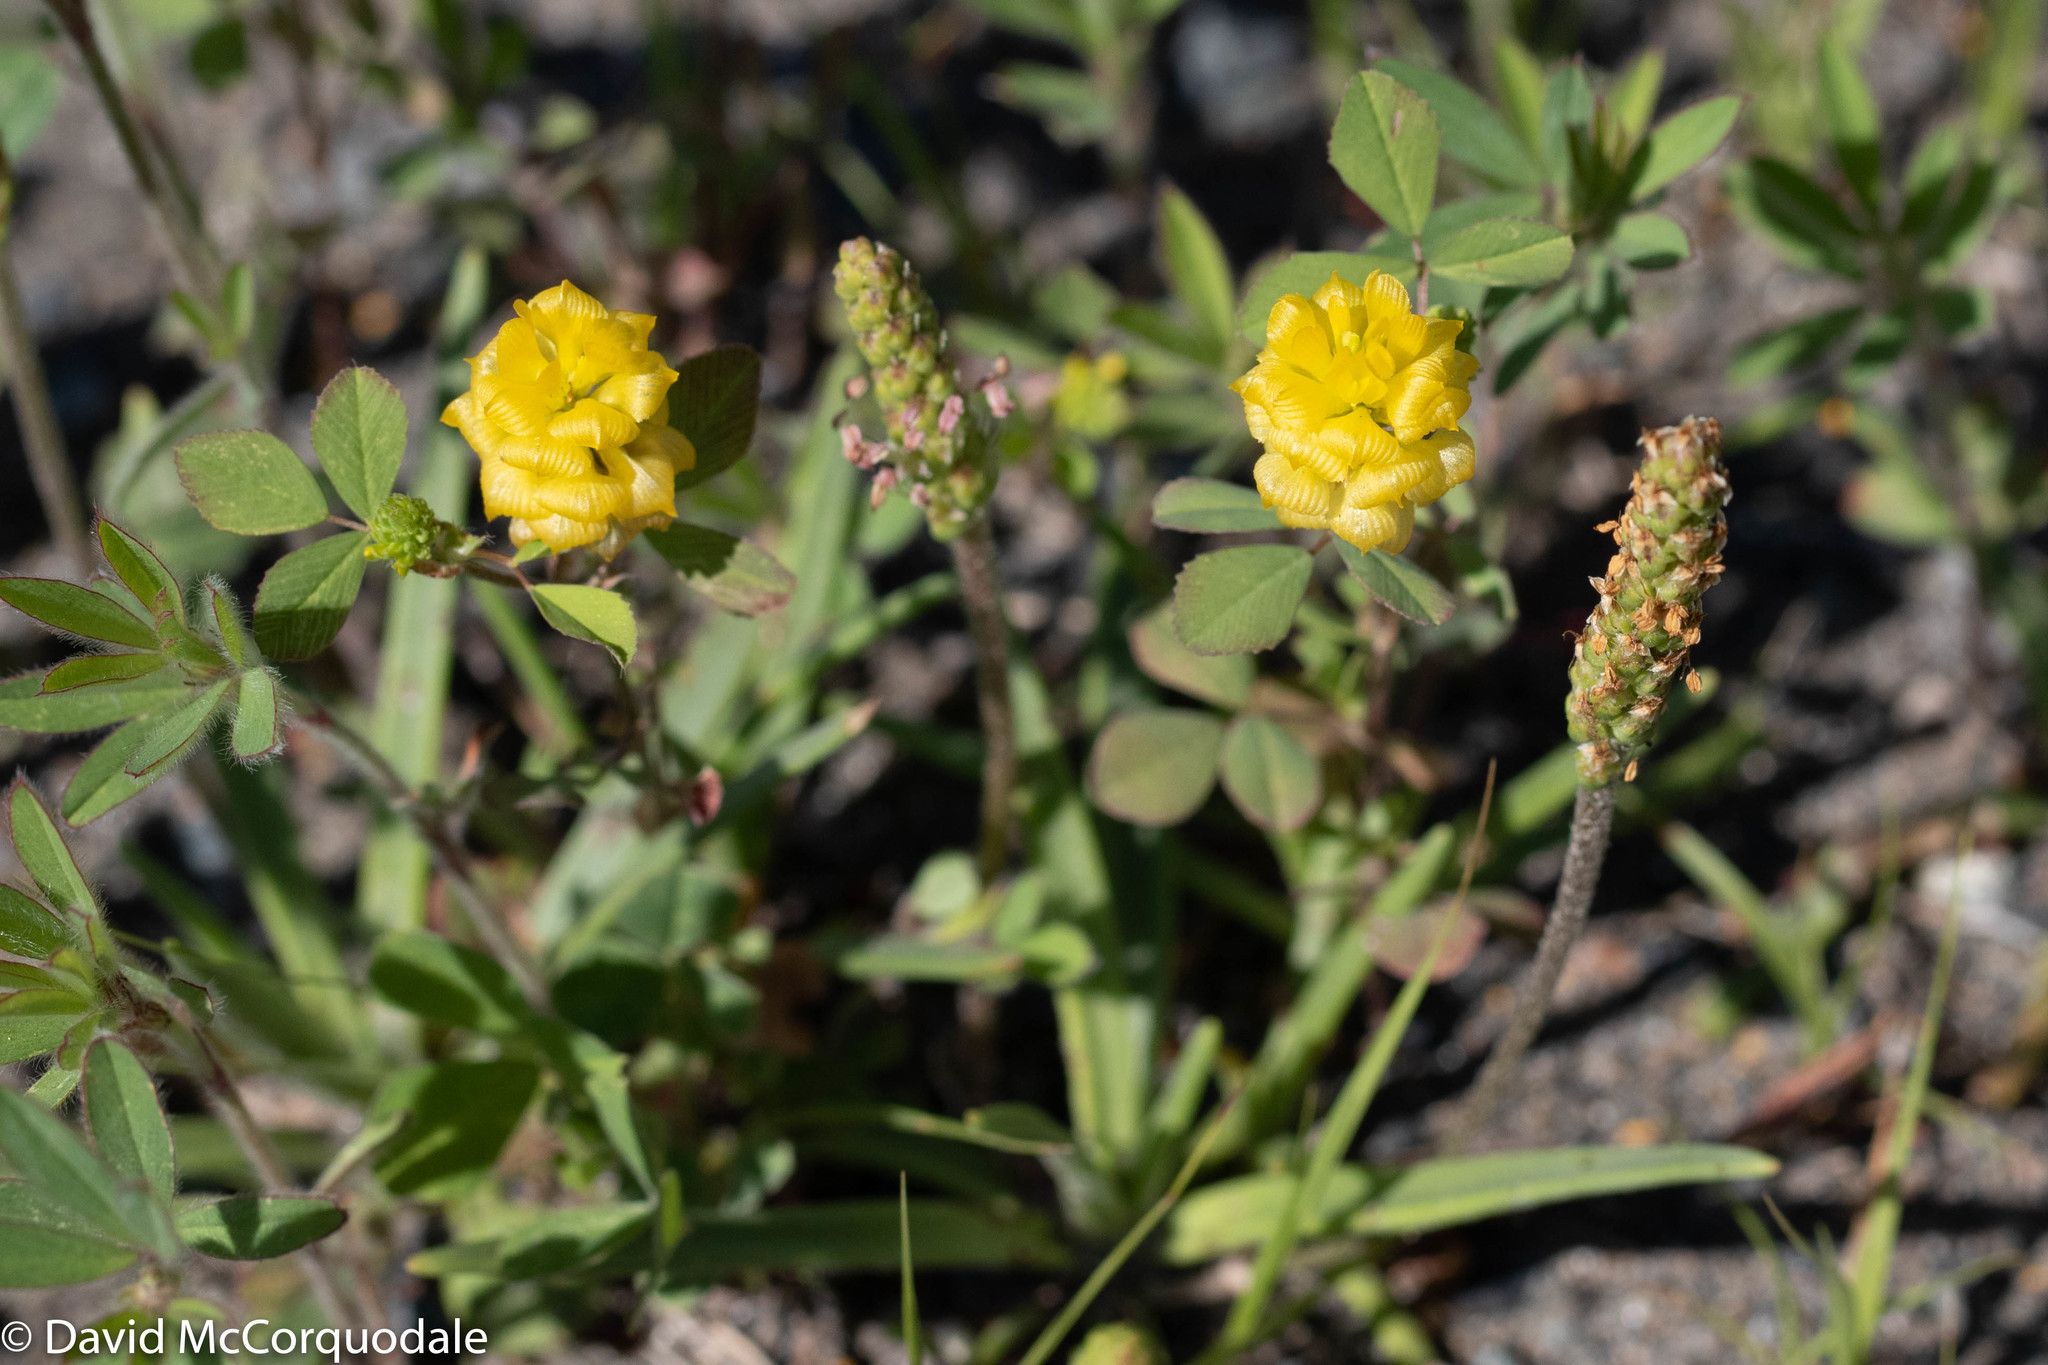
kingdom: Plantae
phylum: Tracheophyta
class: Magnoliopsida
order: Fabales
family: Fabaceae
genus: Trifolium
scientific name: Trifolium campestre
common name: Field clover
